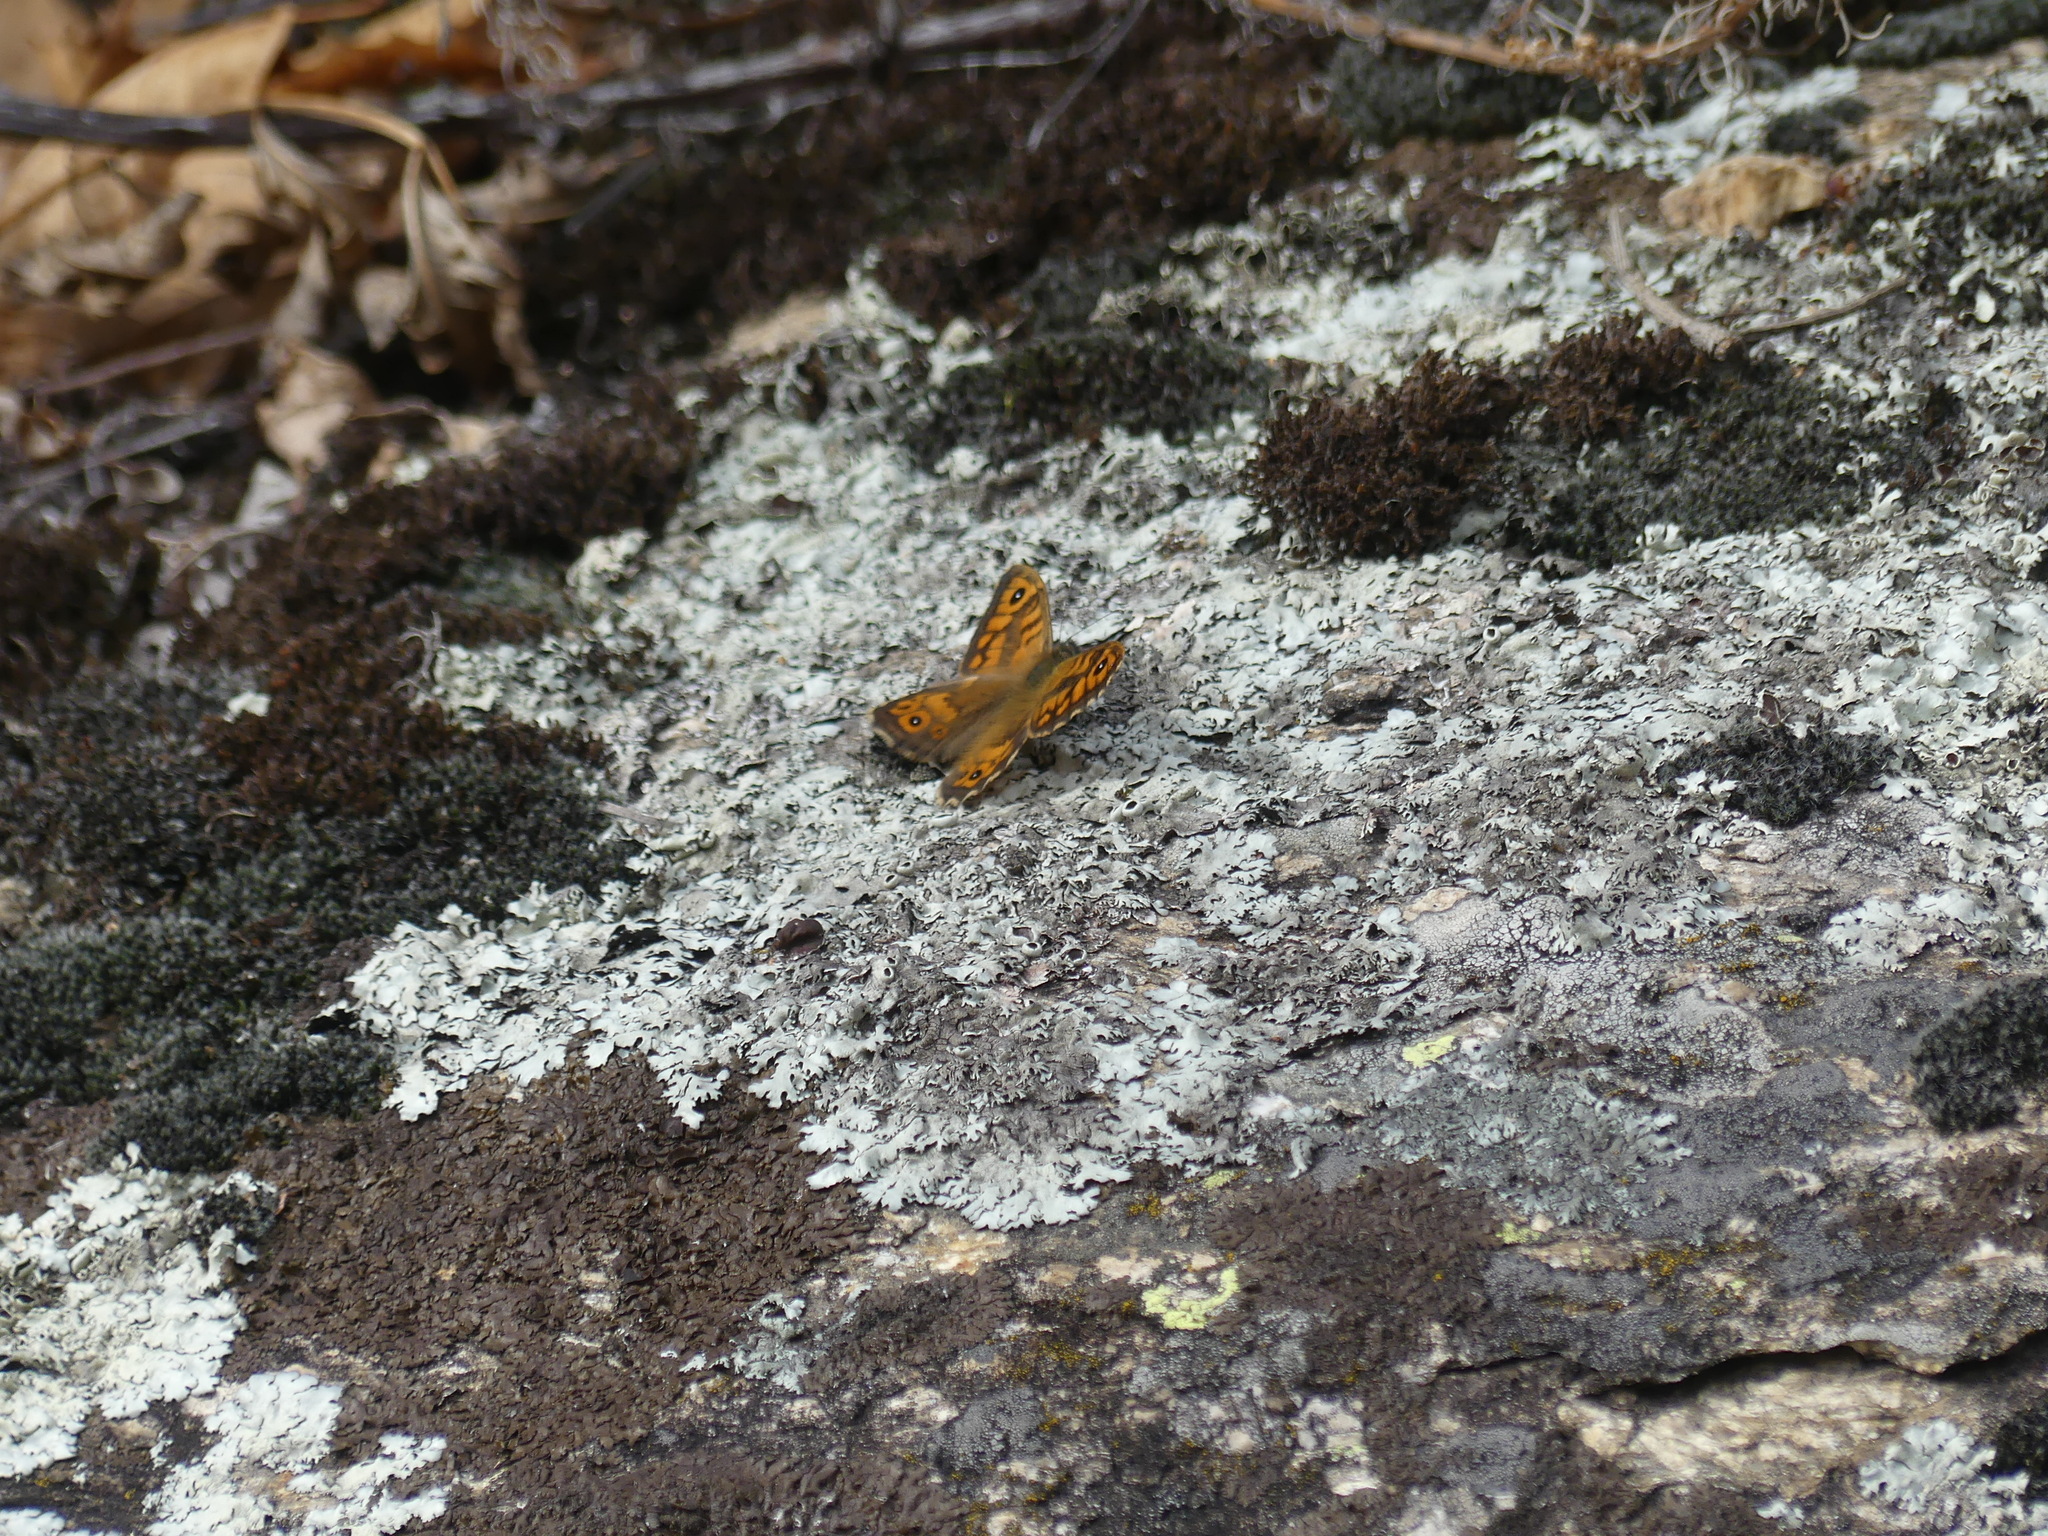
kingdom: Animalia
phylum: Arthropoda
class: Insecta
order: Lepidoptera
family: Nymphalidae
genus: Pararge
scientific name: Pararge Lasiommata megera
